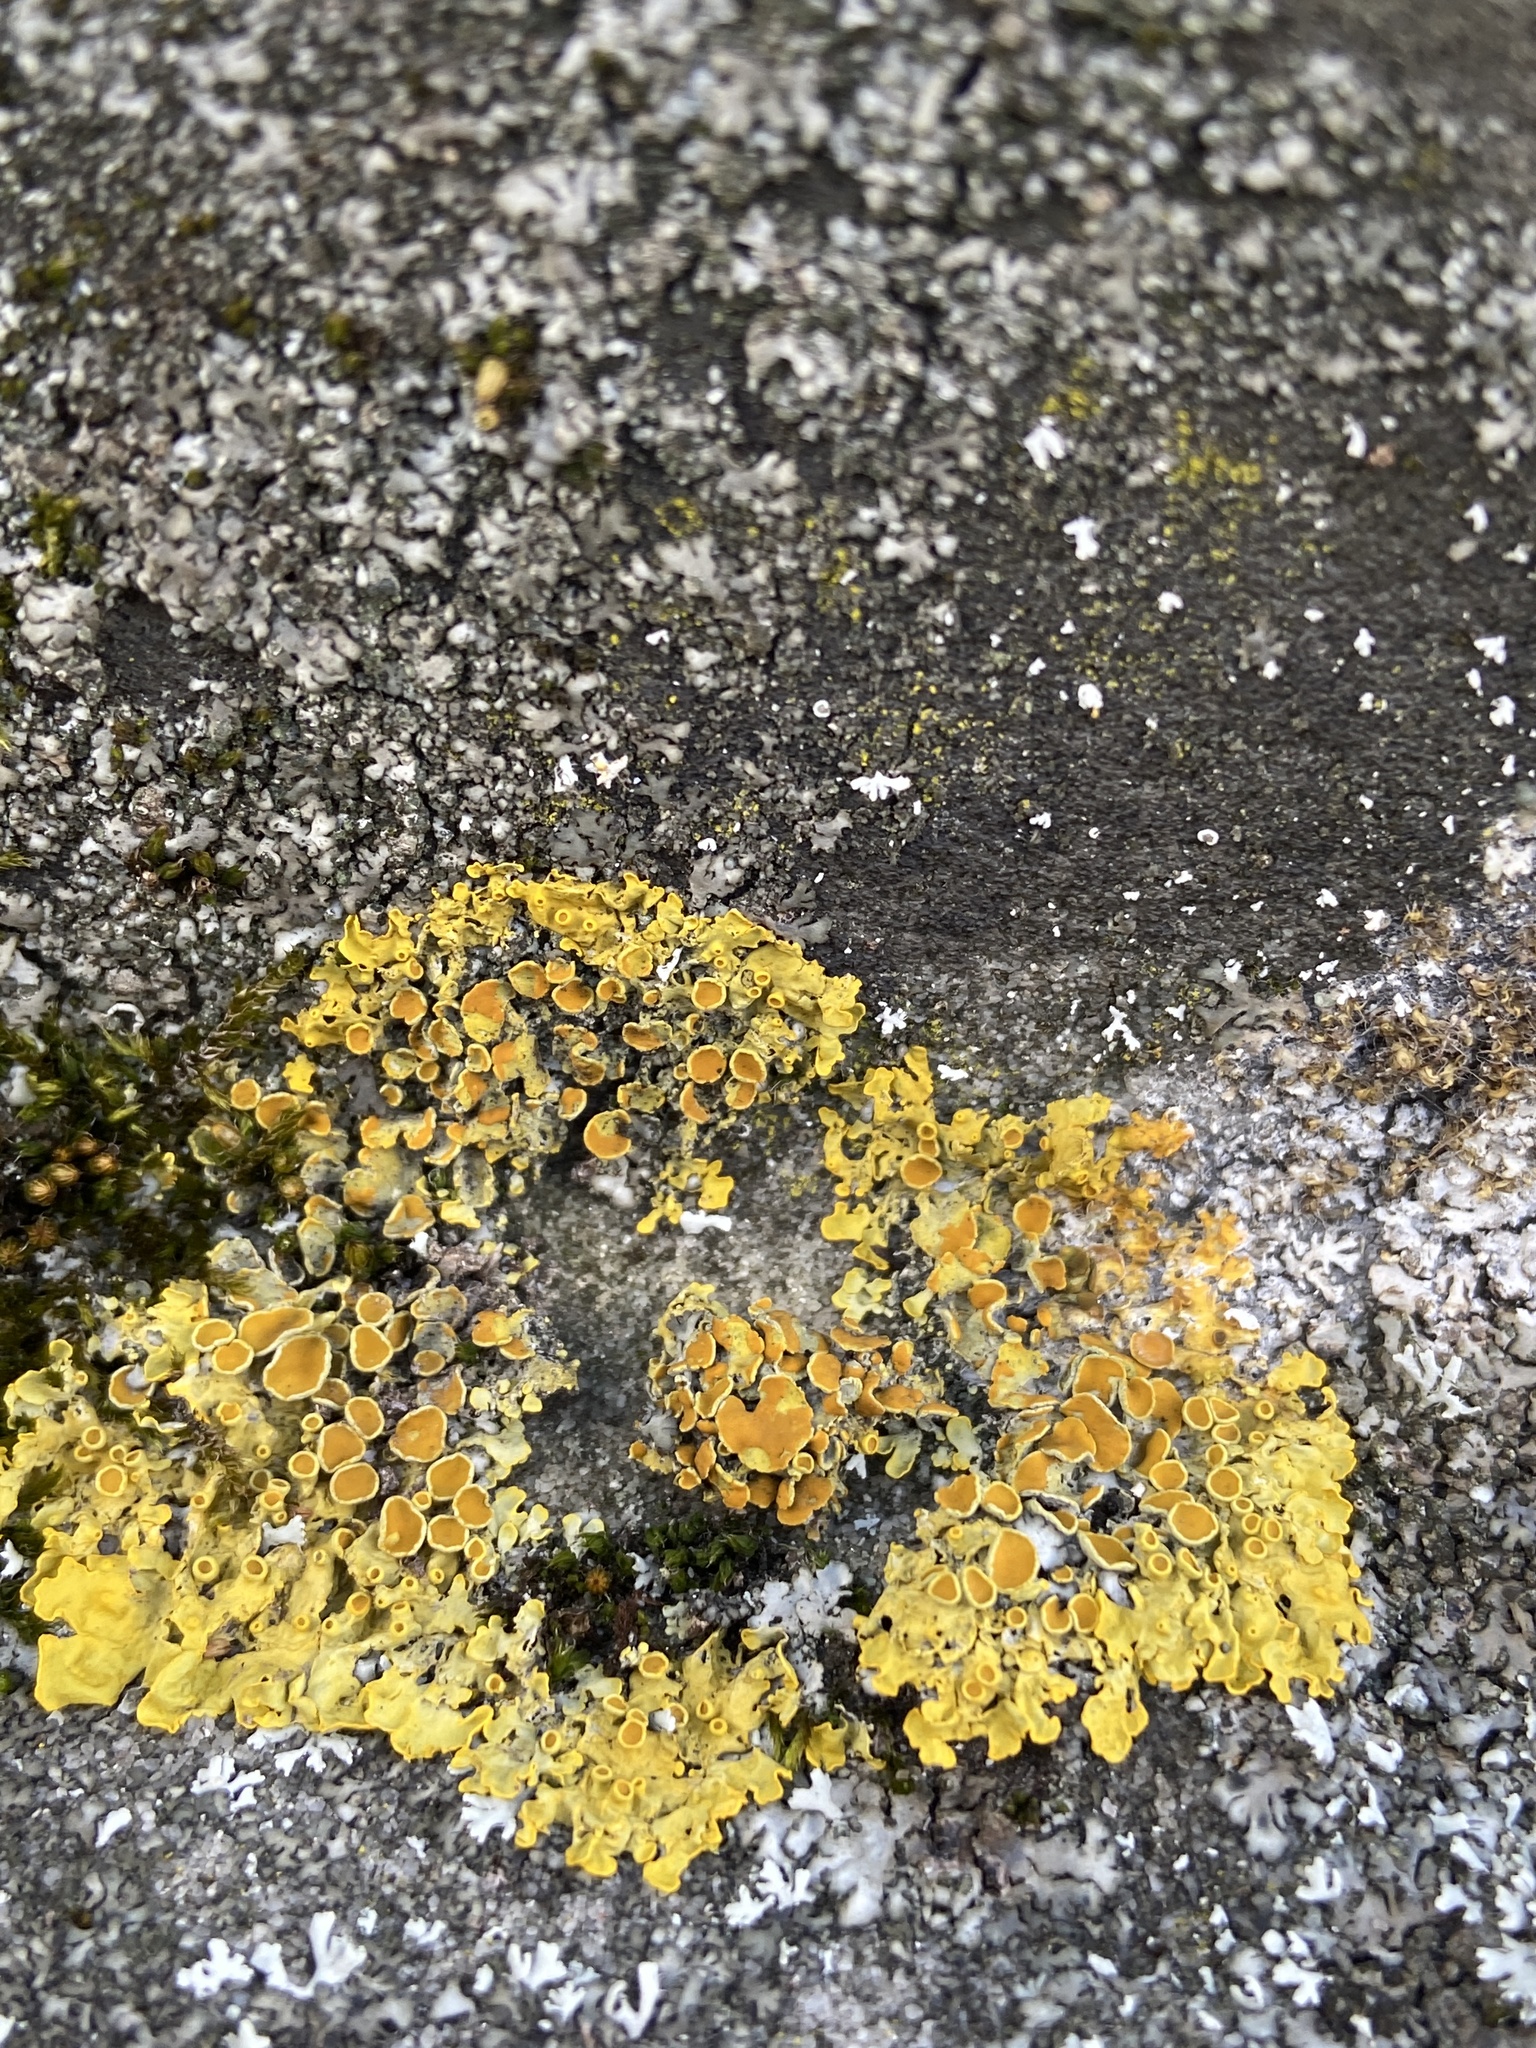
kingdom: Fungi
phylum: Ascomycota
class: Lecanoromycetes
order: Teloschistales
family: Teloschistaceae
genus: Xanthoria
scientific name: Xanthoria parietina
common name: Common orange lichen
